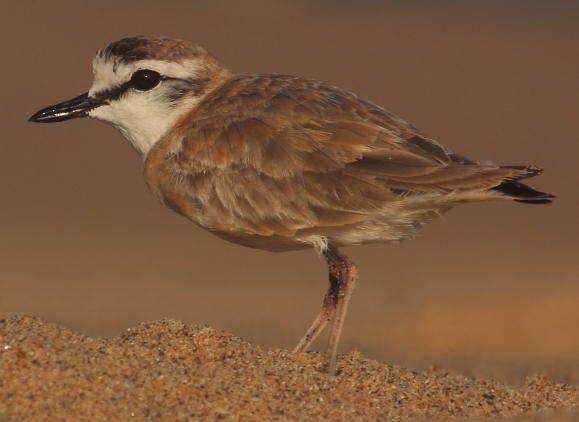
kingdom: Animalia
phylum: Chordata
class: Aves
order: Charadriiformes
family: Charadriidae
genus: Anarhynchus
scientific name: Anarhynchus
